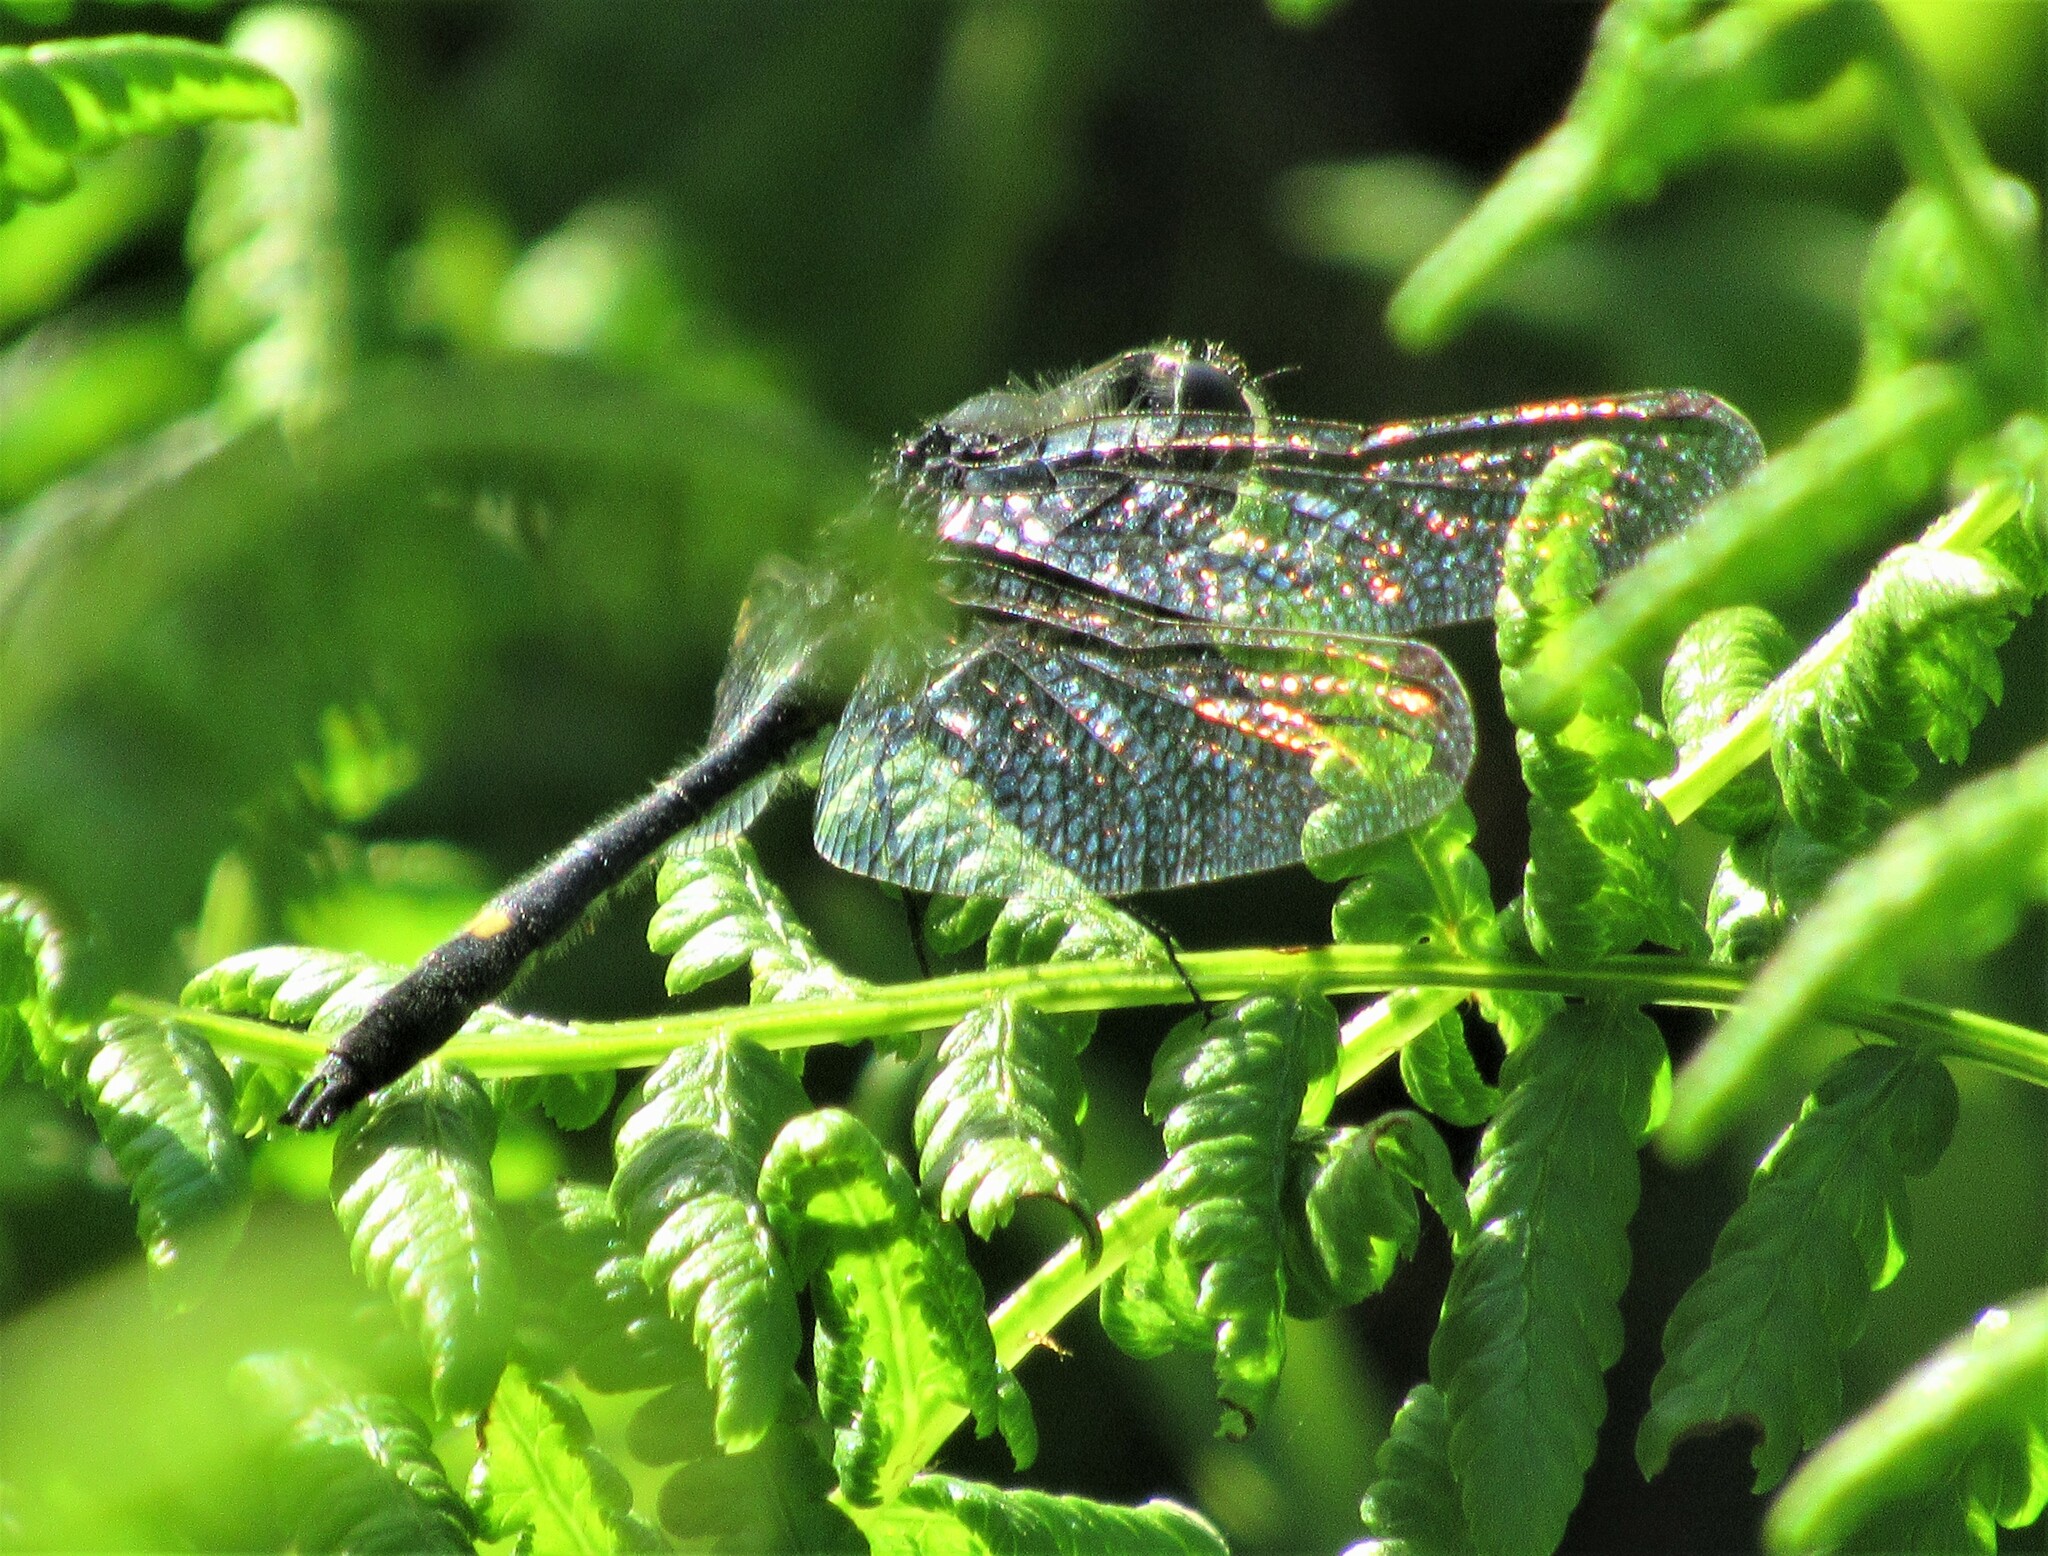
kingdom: Animalia
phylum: Arthropoda
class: Insecta
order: Odonata
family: Libellulidae
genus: Leucorrhinia
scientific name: Leucorrhinia intacta
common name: Dot-tailed whiteface
